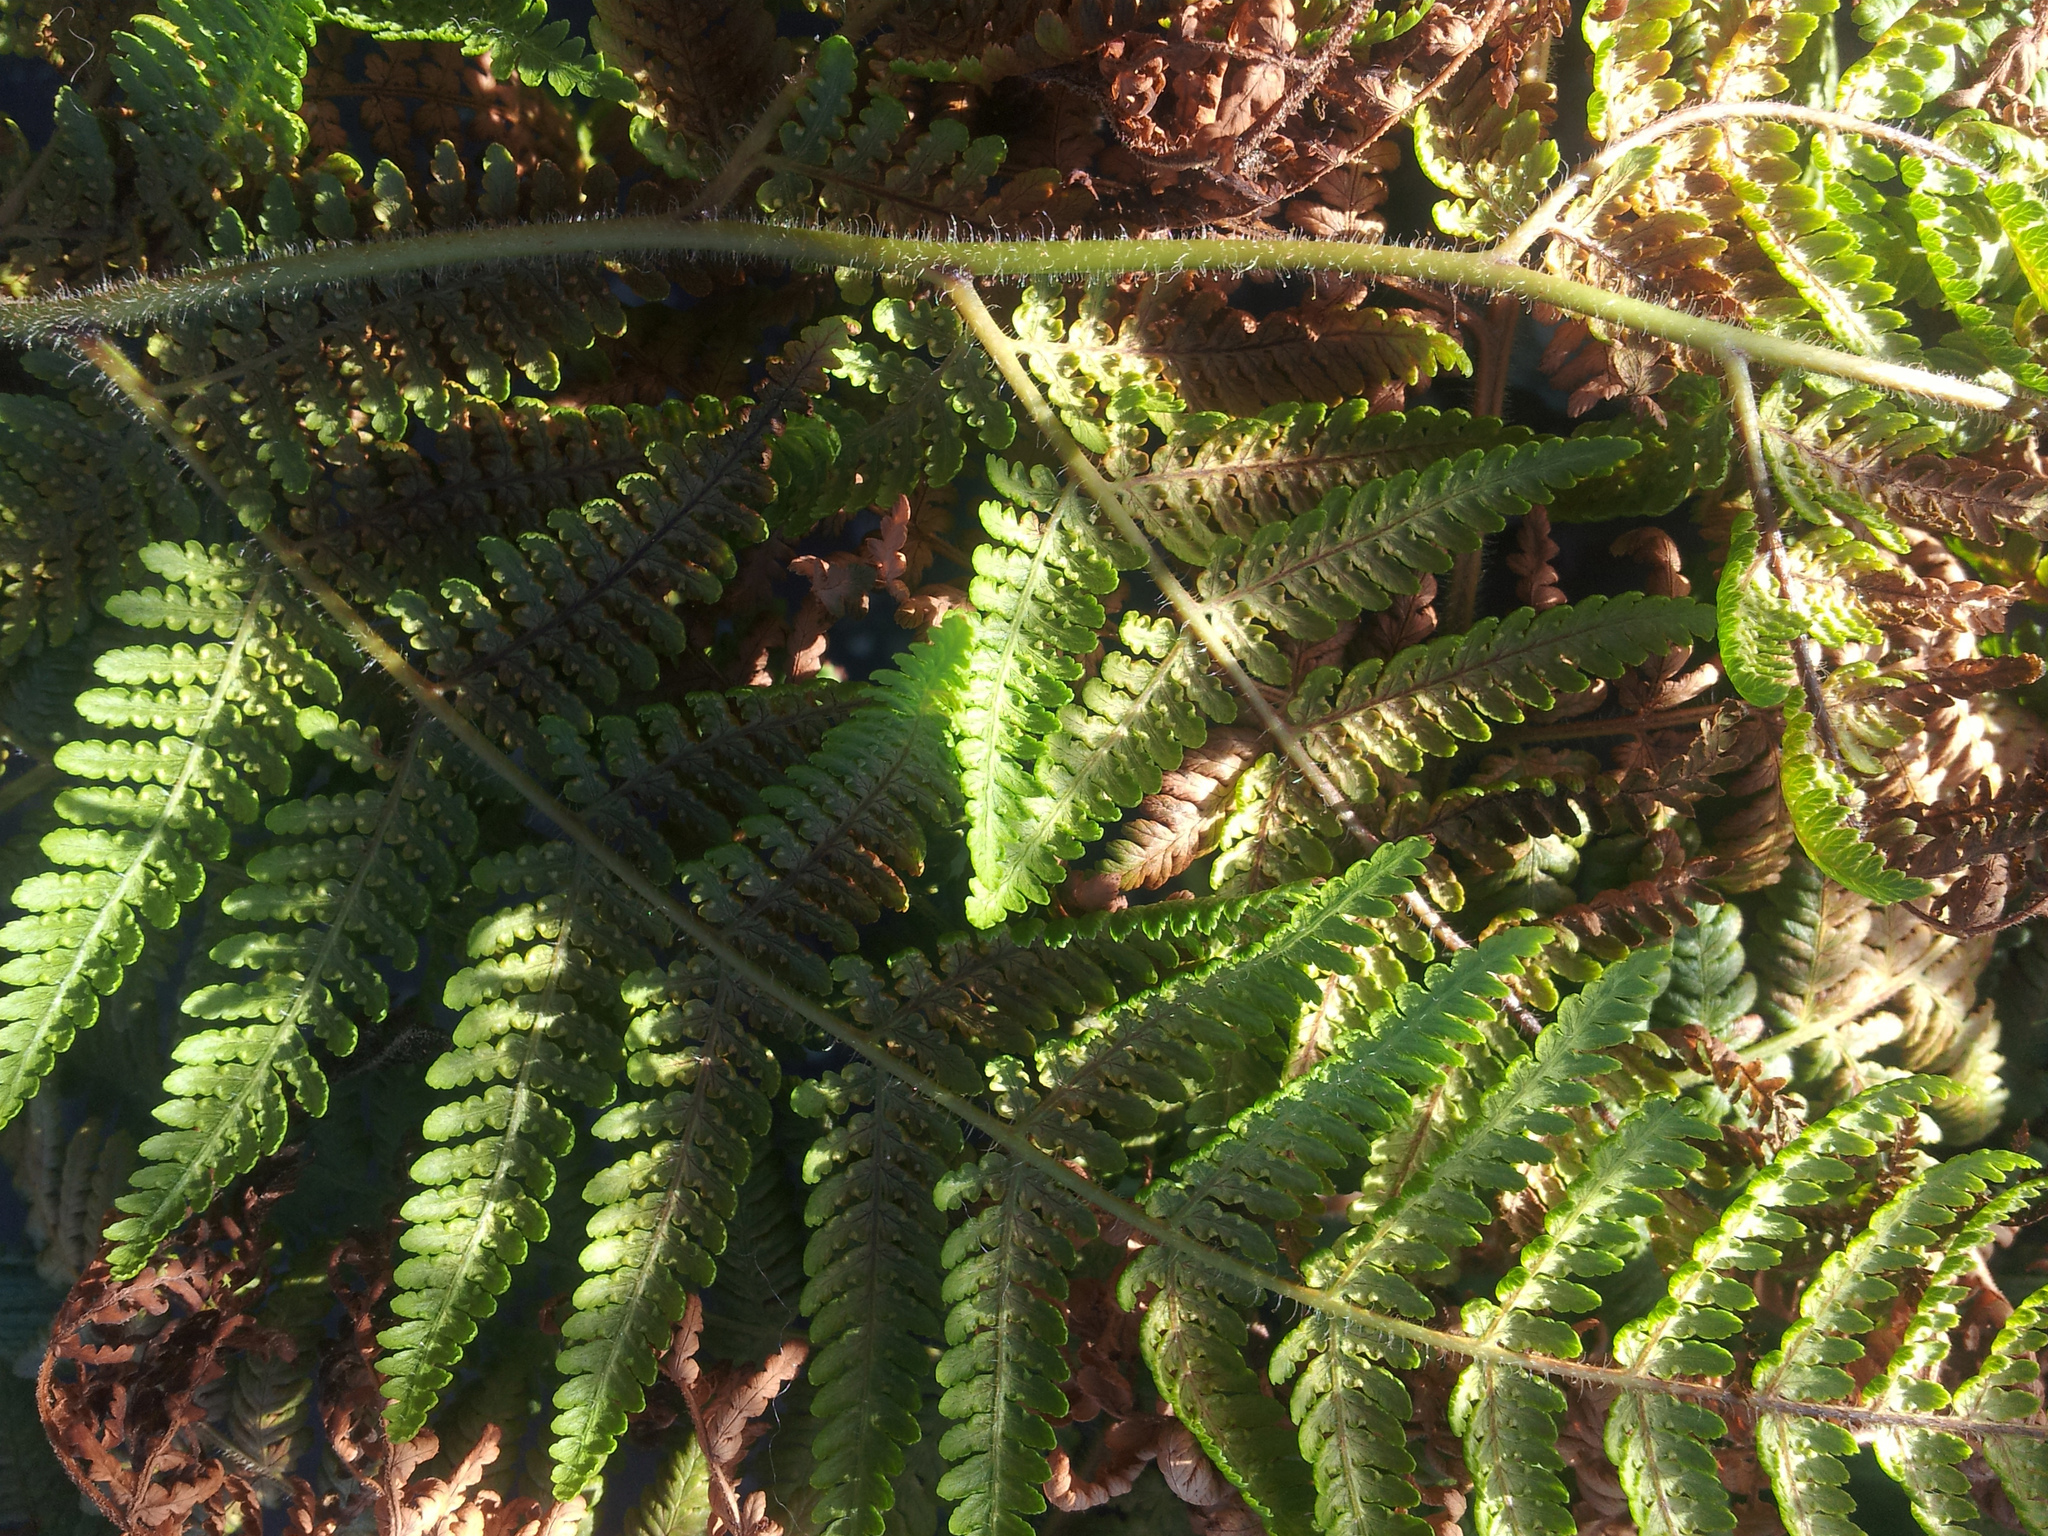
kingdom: Plantae
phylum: Tracheophyta
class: Polypodiopsida
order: Polypodiales
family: Dennstaedtiaceae
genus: Hypolepis
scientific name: Hypolepis dicksonioides
